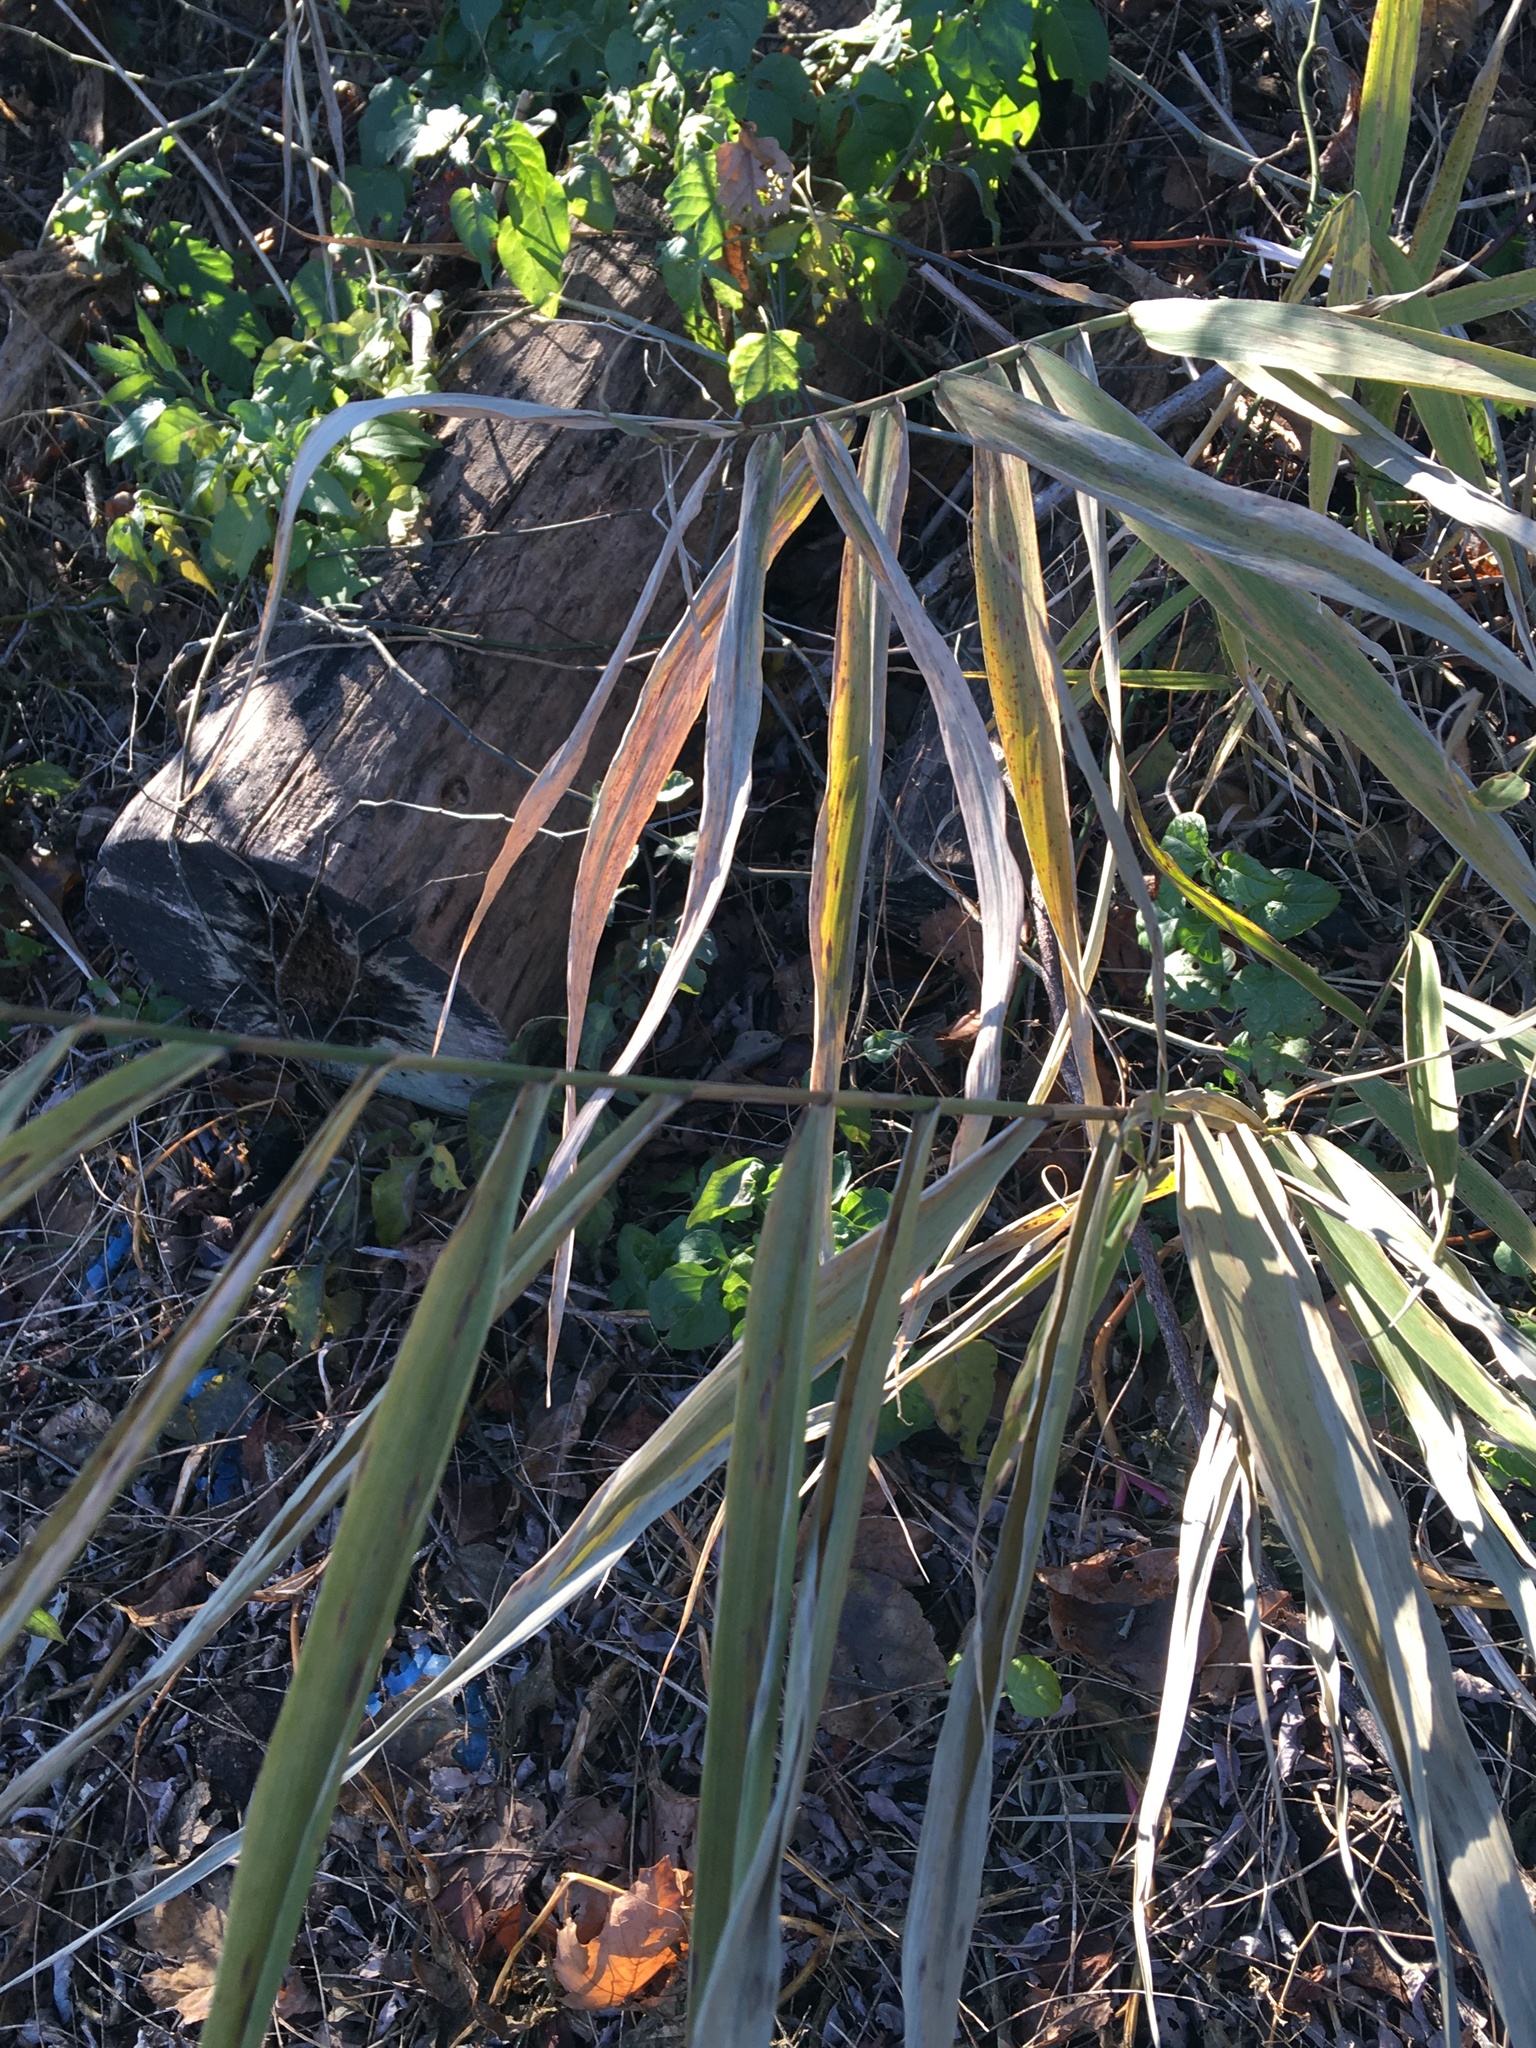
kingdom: Plantae
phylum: Tracheophyta
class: Liliopsida
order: Poales
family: Poaceae
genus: Phragmites
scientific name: Phragmites australis
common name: Common reed
